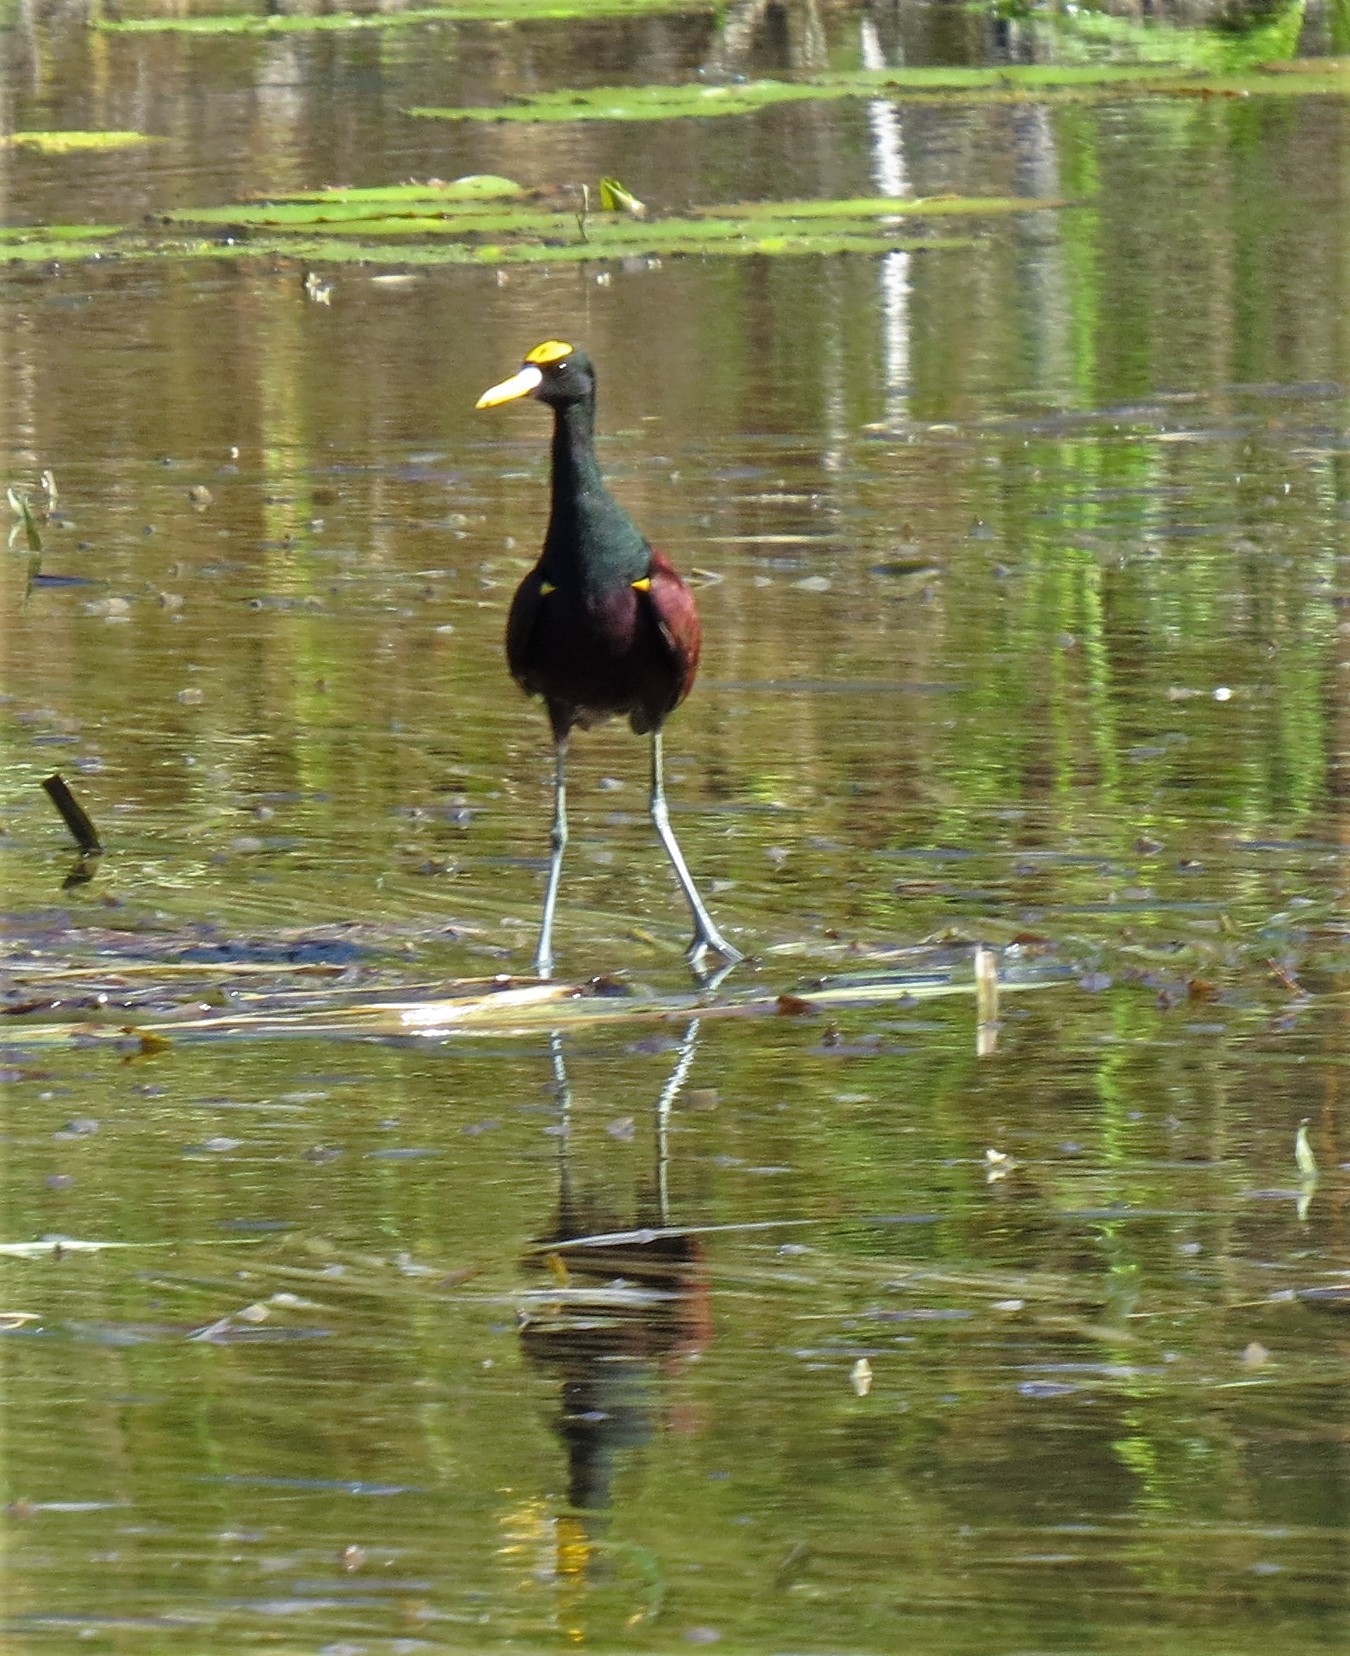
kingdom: Animalia
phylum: Chordata
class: Aves
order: Charadriiformes
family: Jacanidae
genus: Jacana
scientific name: Jacana spinosa
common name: Northern jacana
